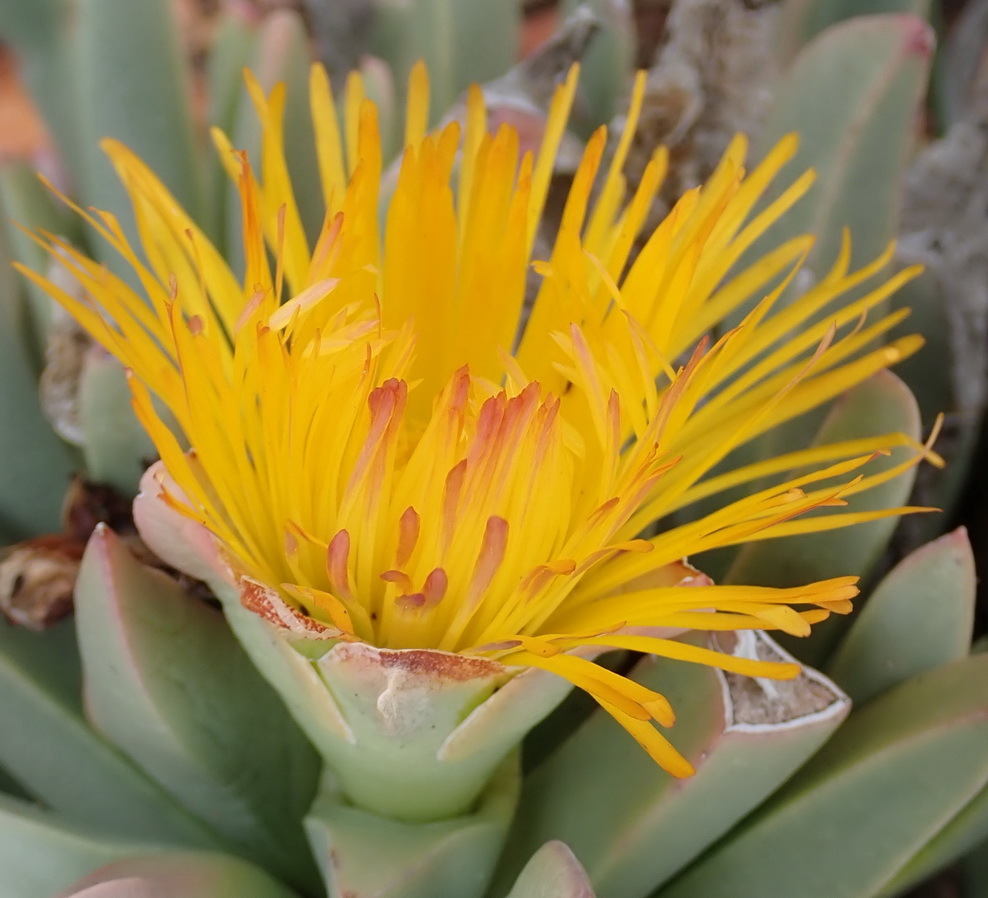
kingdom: Plantae
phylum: Tracheophyta
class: Magnoliopsida
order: Caryophyllales
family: Aizoaceae
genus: Machairophyllum
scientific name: Machairophyllum albidum
